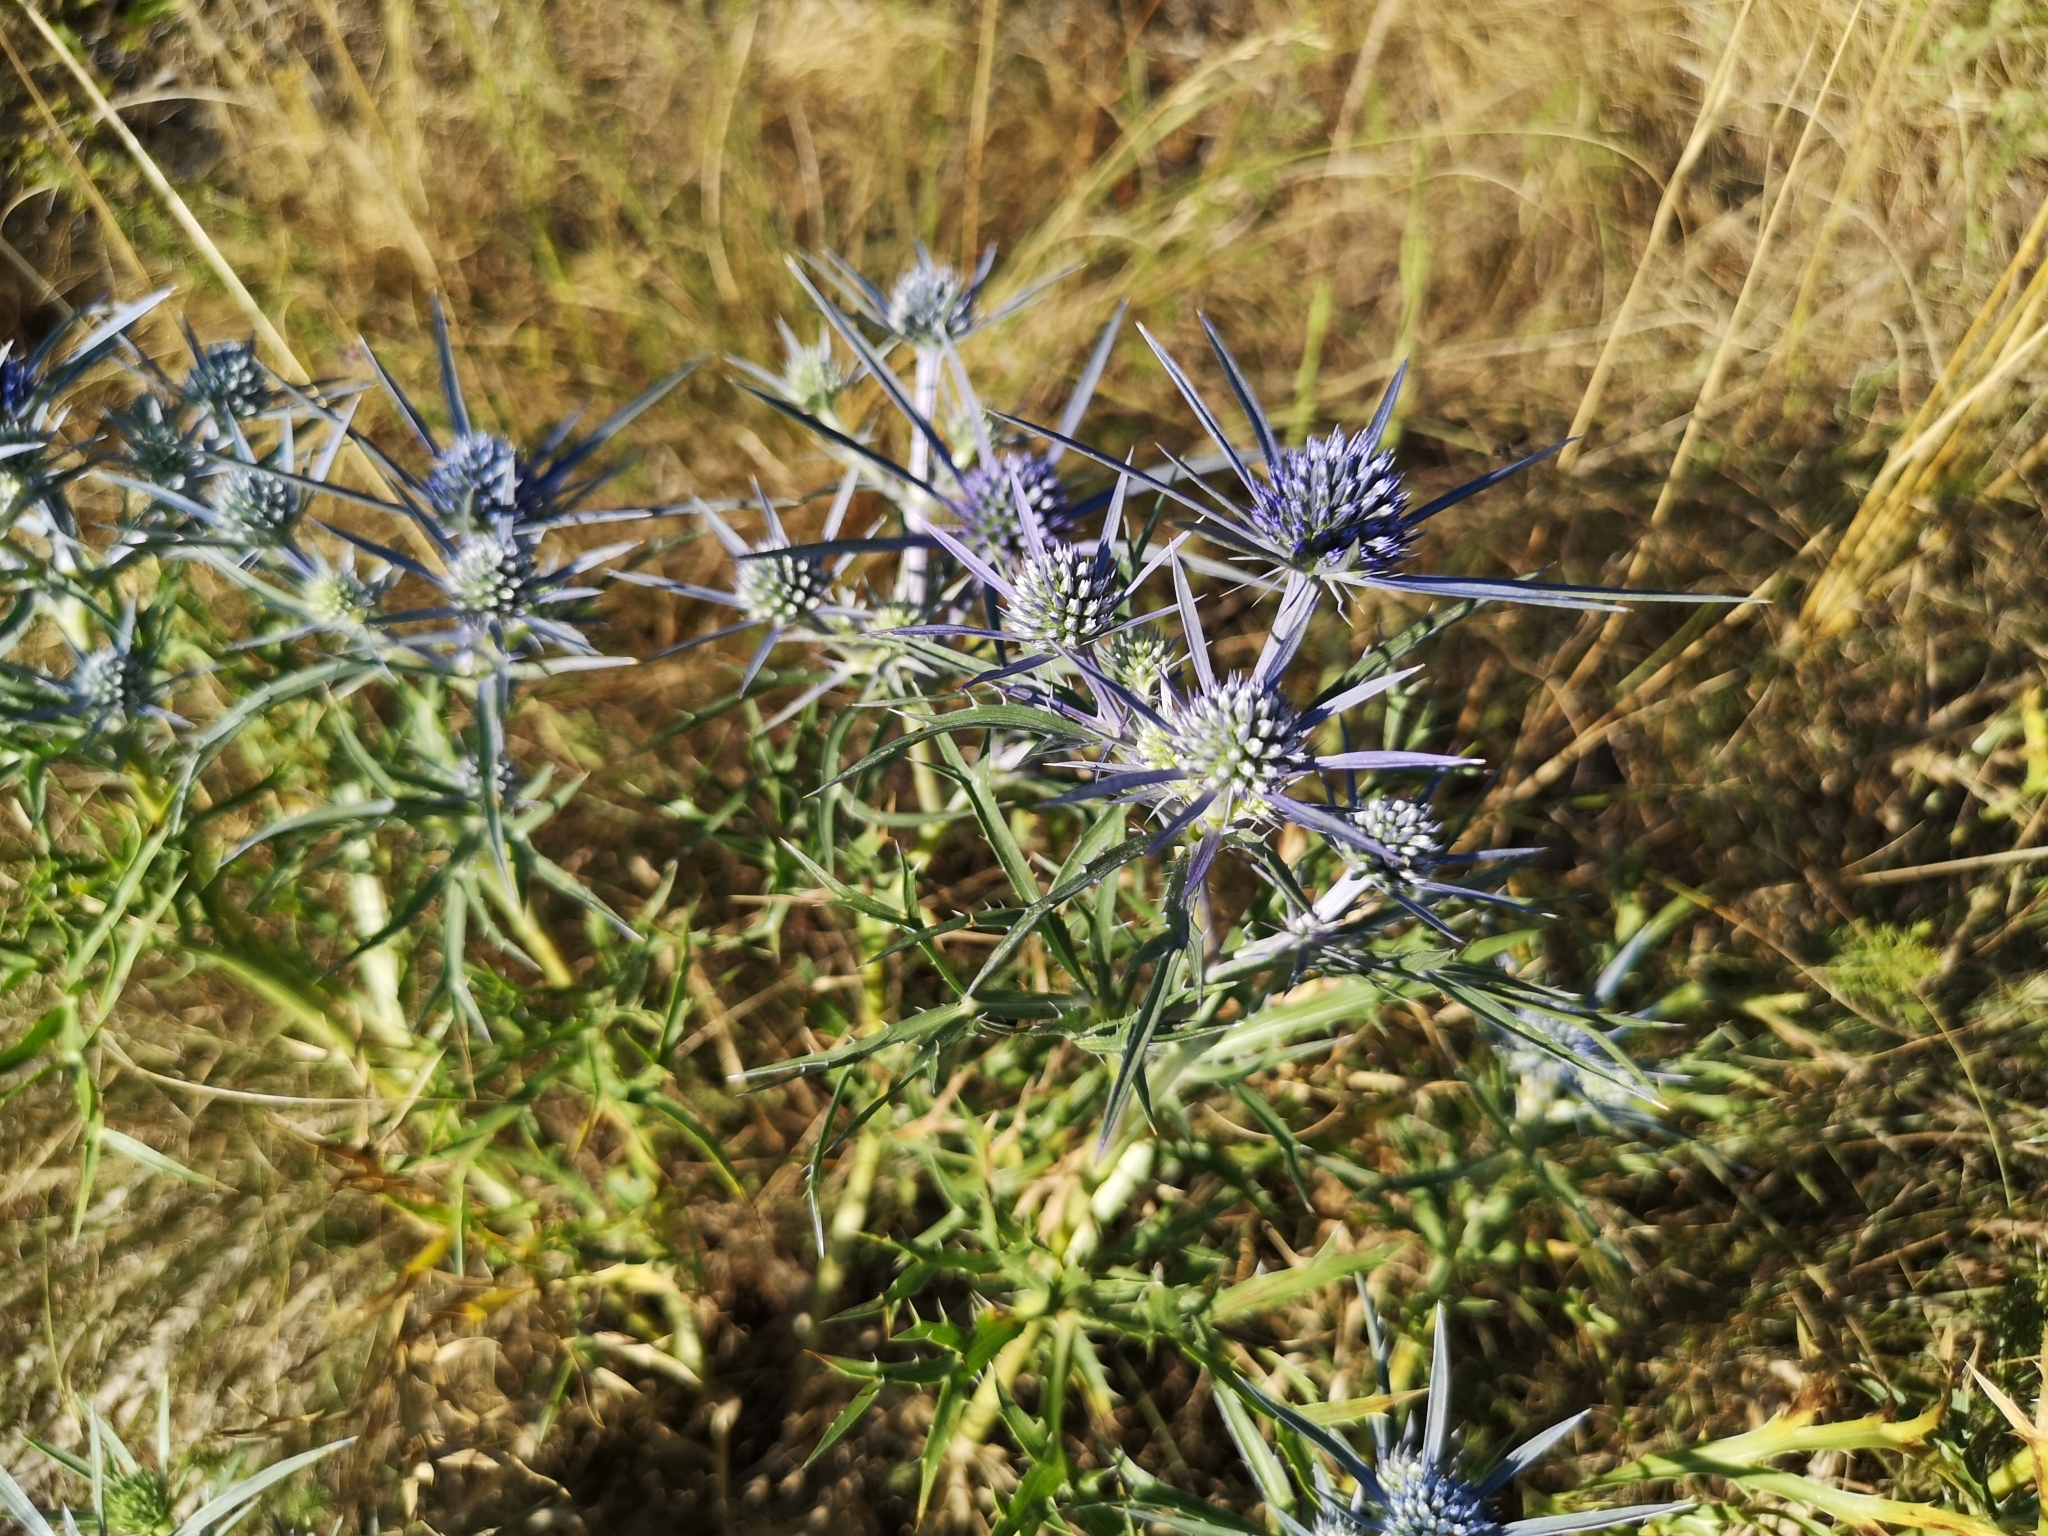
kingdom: Plantae
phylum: Tracheophyta
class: Magnoliopsida
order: Apiales
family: Apiaceae
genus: Eryngium
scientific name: Eryngium amethystinum
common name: Amethyst eryngo
